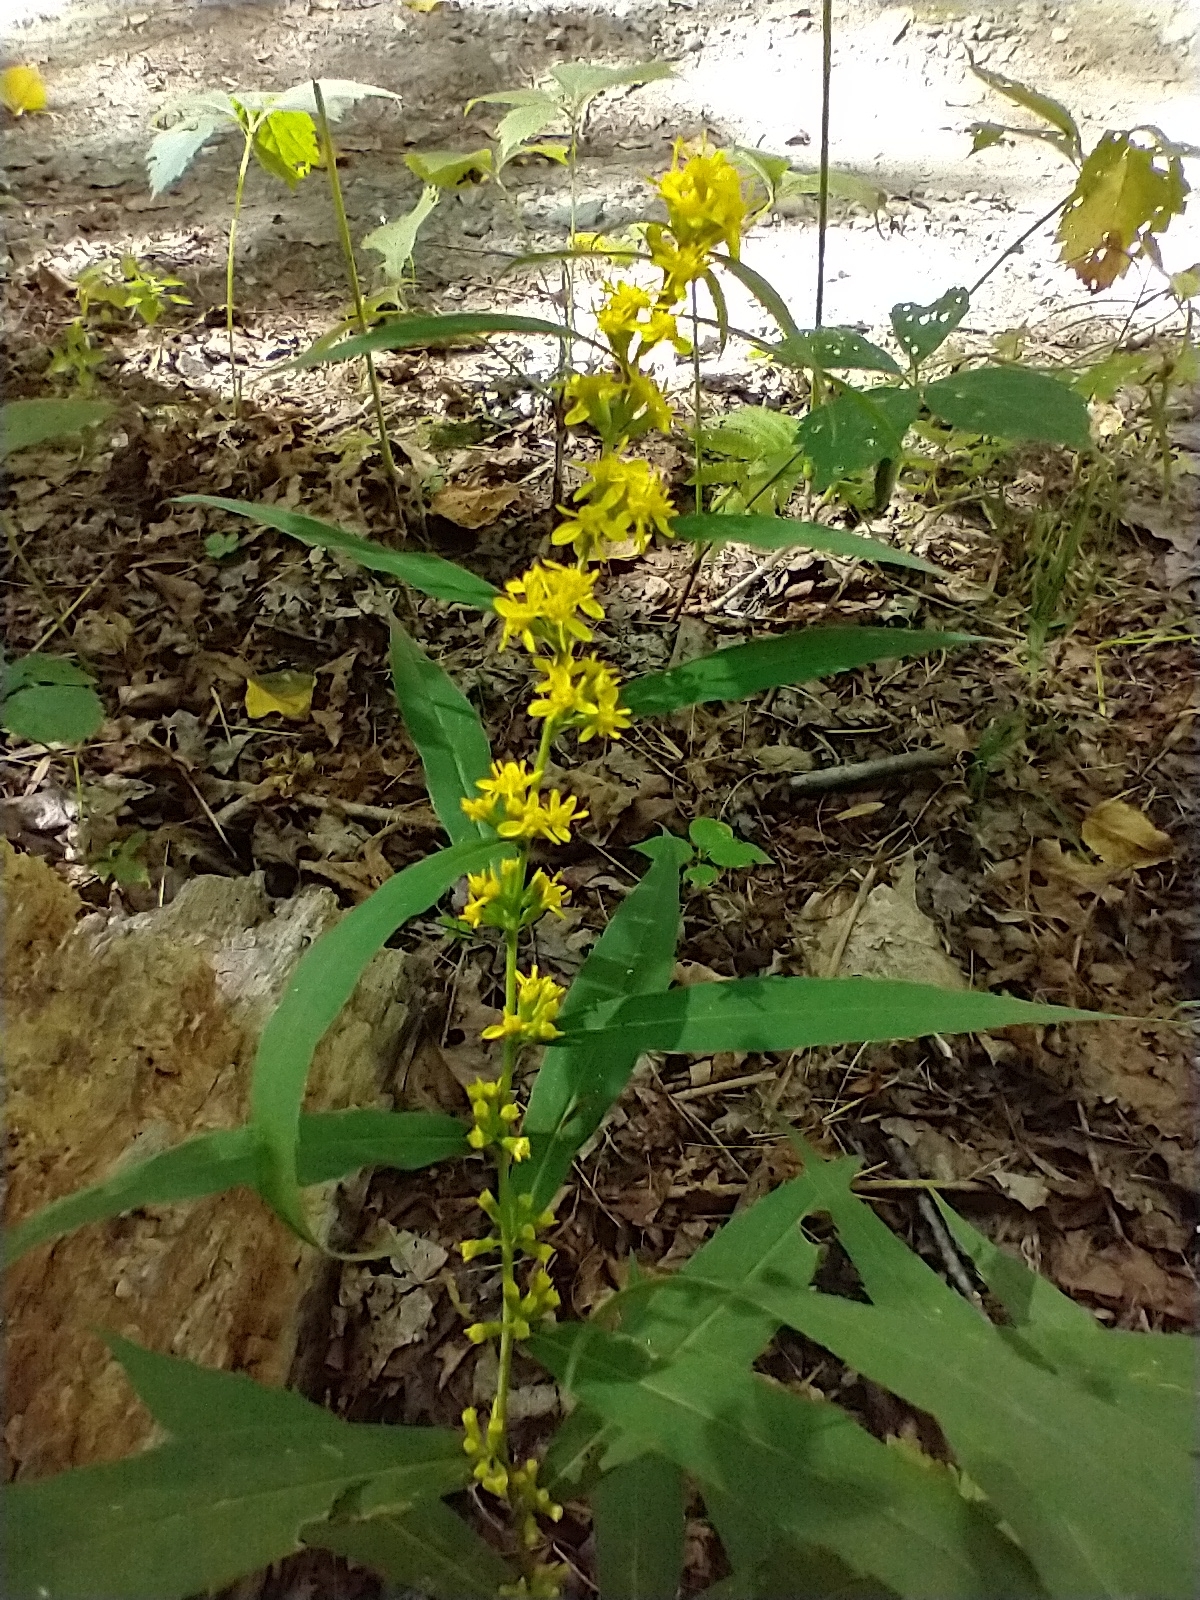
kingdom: Plantae
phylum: Tracheophyta
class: Magnoliopsida
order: Asterales
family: Asteraceae
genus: Solidago
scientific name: Solidago caesia
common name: Woodland goldenrod
